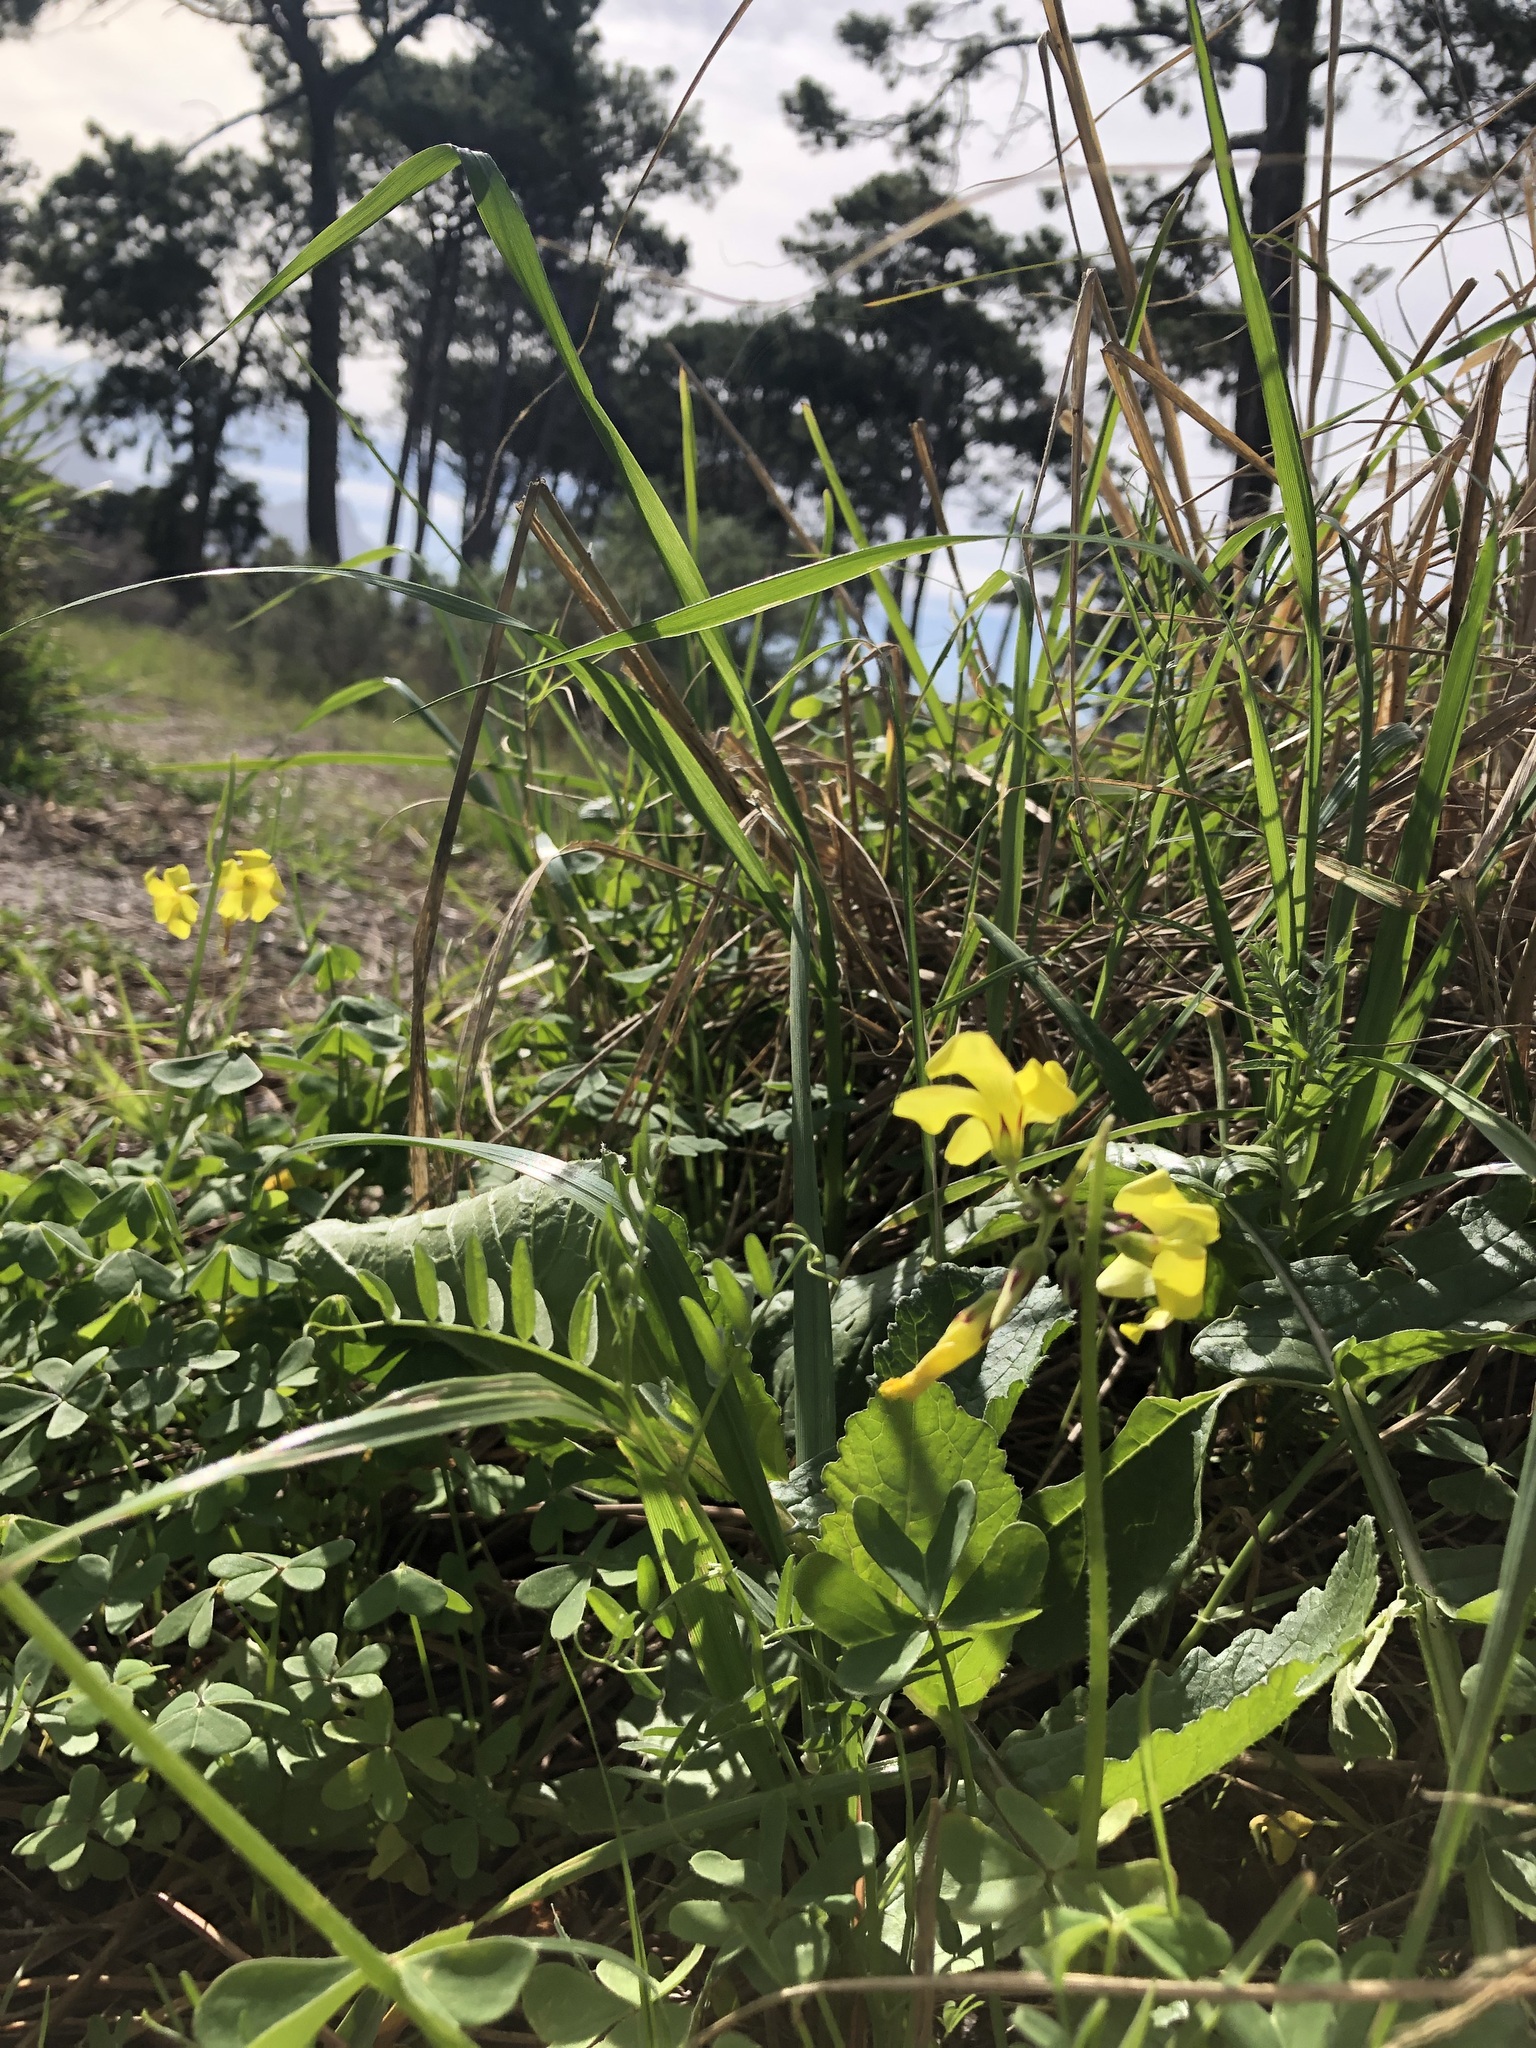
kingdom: Plantae
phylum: Tracheophyta
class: Magnoliopsida
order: Oxalidales
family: Oxalidaceae
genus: Oxalis
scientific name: Oxalis pes-caprae
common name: Bermuda-buttercup
